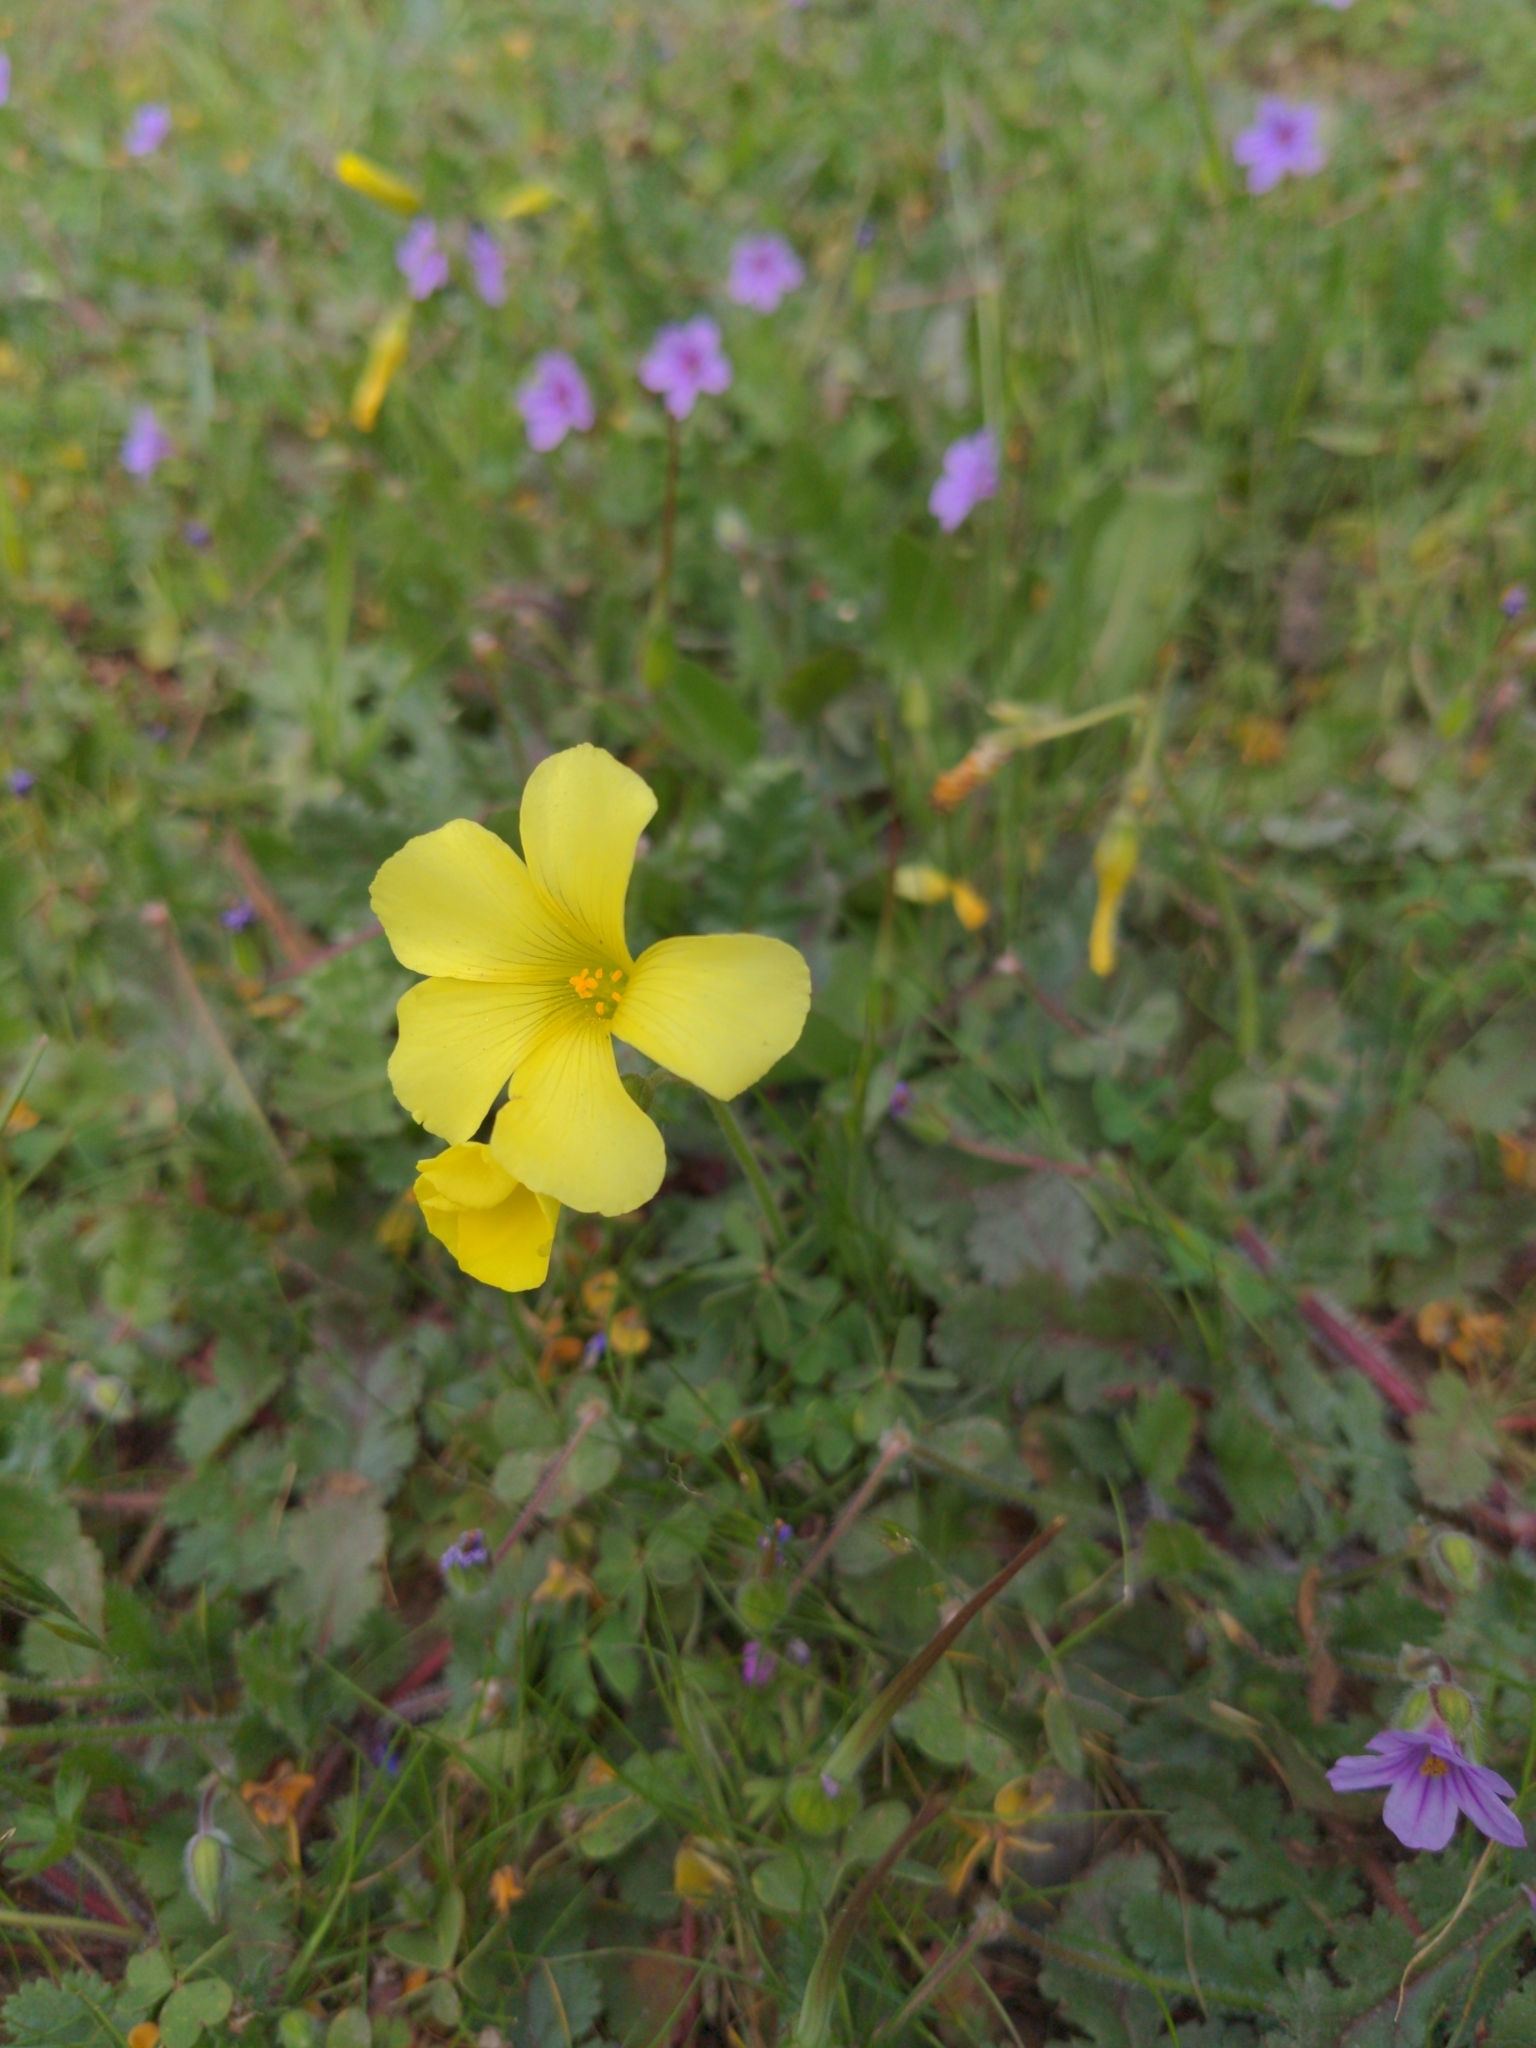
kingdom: Plantae
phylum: Tracheophyta
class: Magnoliopsida
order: Oxalidales
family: Oxalidaceae
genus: Oxalis
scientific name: Oxalis pes-caprae
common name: Bermuda-buttercup
